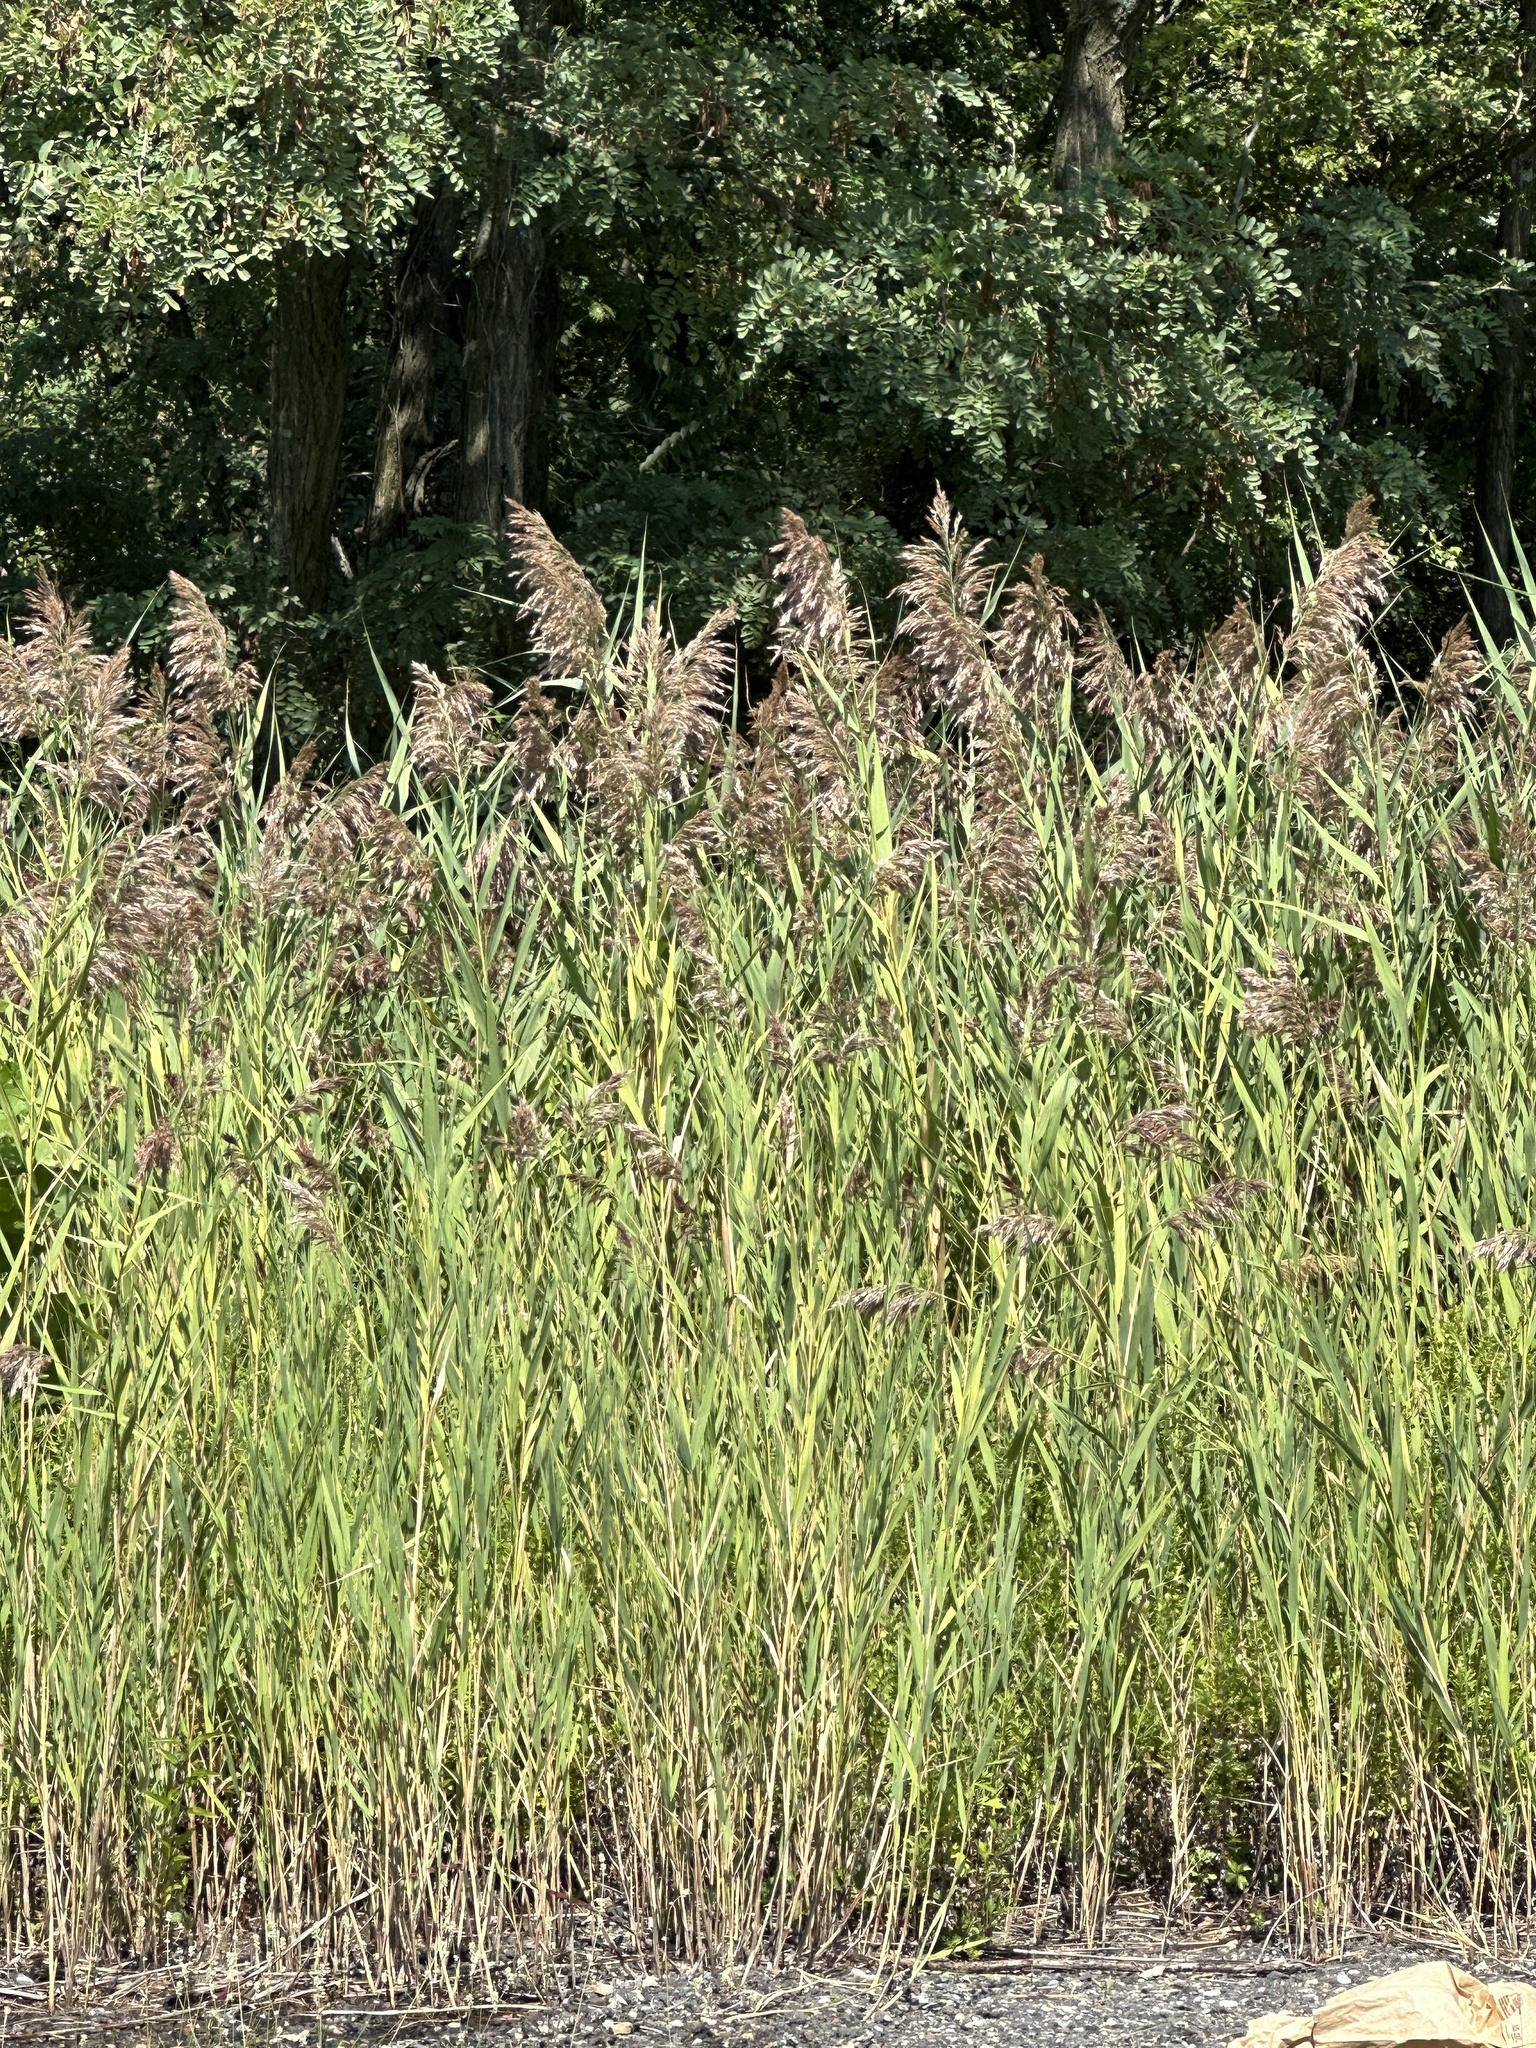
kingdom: Plantae
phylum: Tracheophyta
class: Liliopsida
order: Poales
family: Poaceae
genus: Phragmites
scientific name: Phragmites australis
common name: Common reed
